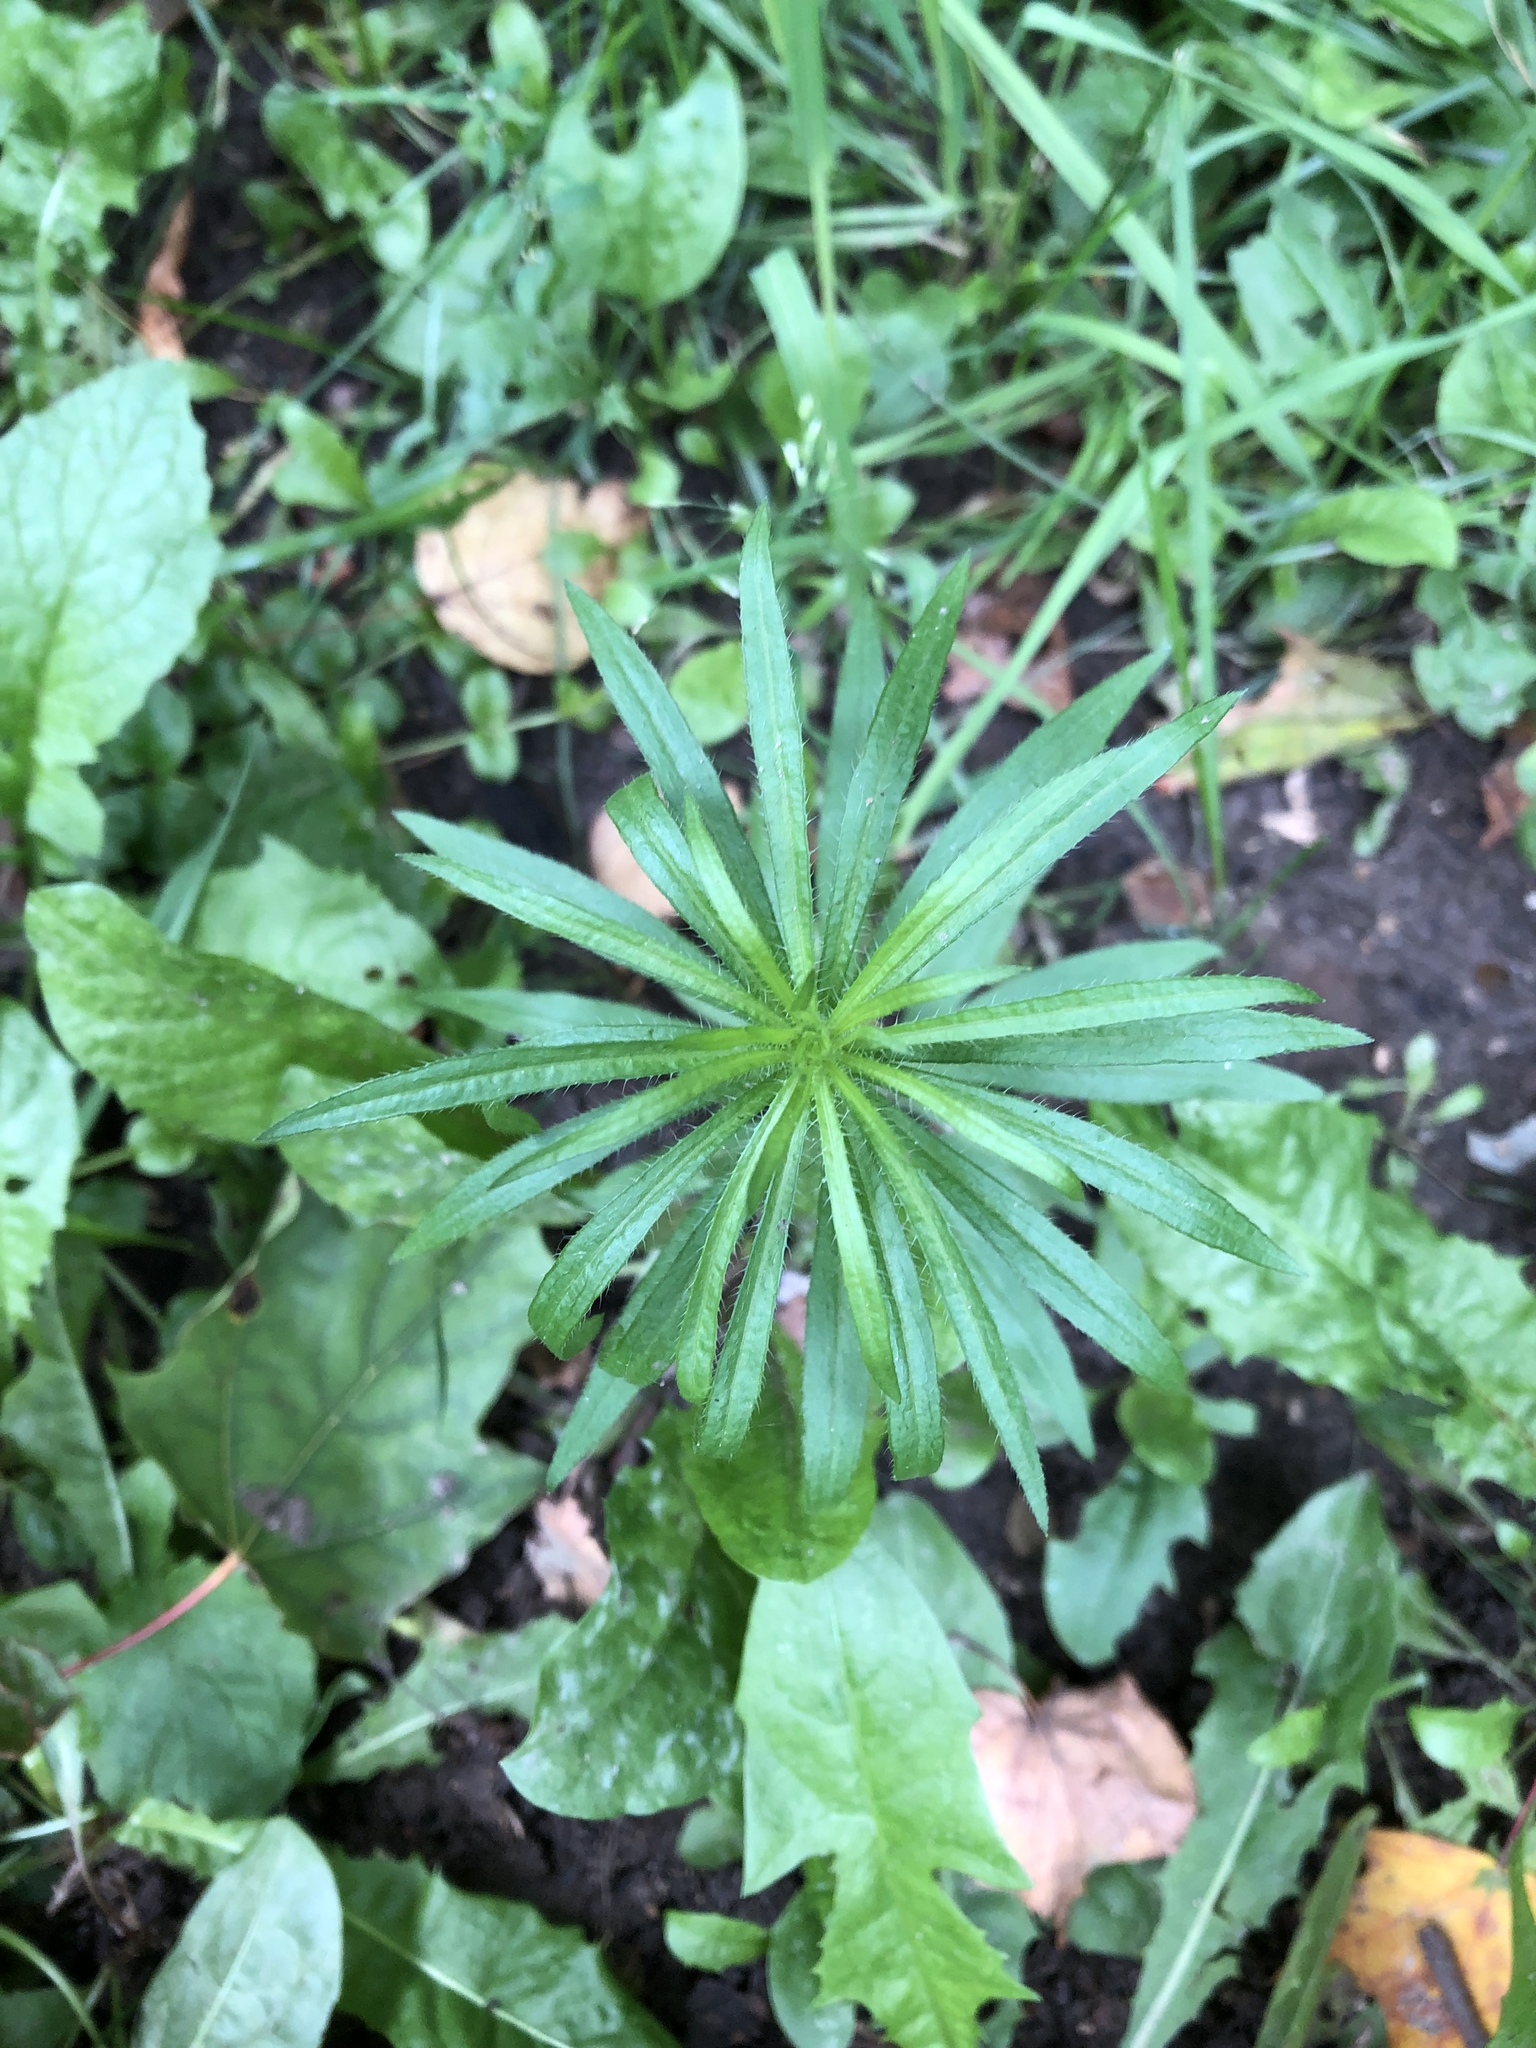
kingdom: Plantae
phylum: Tracheophyta
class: Magnoliopsida
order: Asterales
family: Asteraceae
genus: Erigeron
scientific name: Erigeron canadensis
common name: Canadian fleabane
